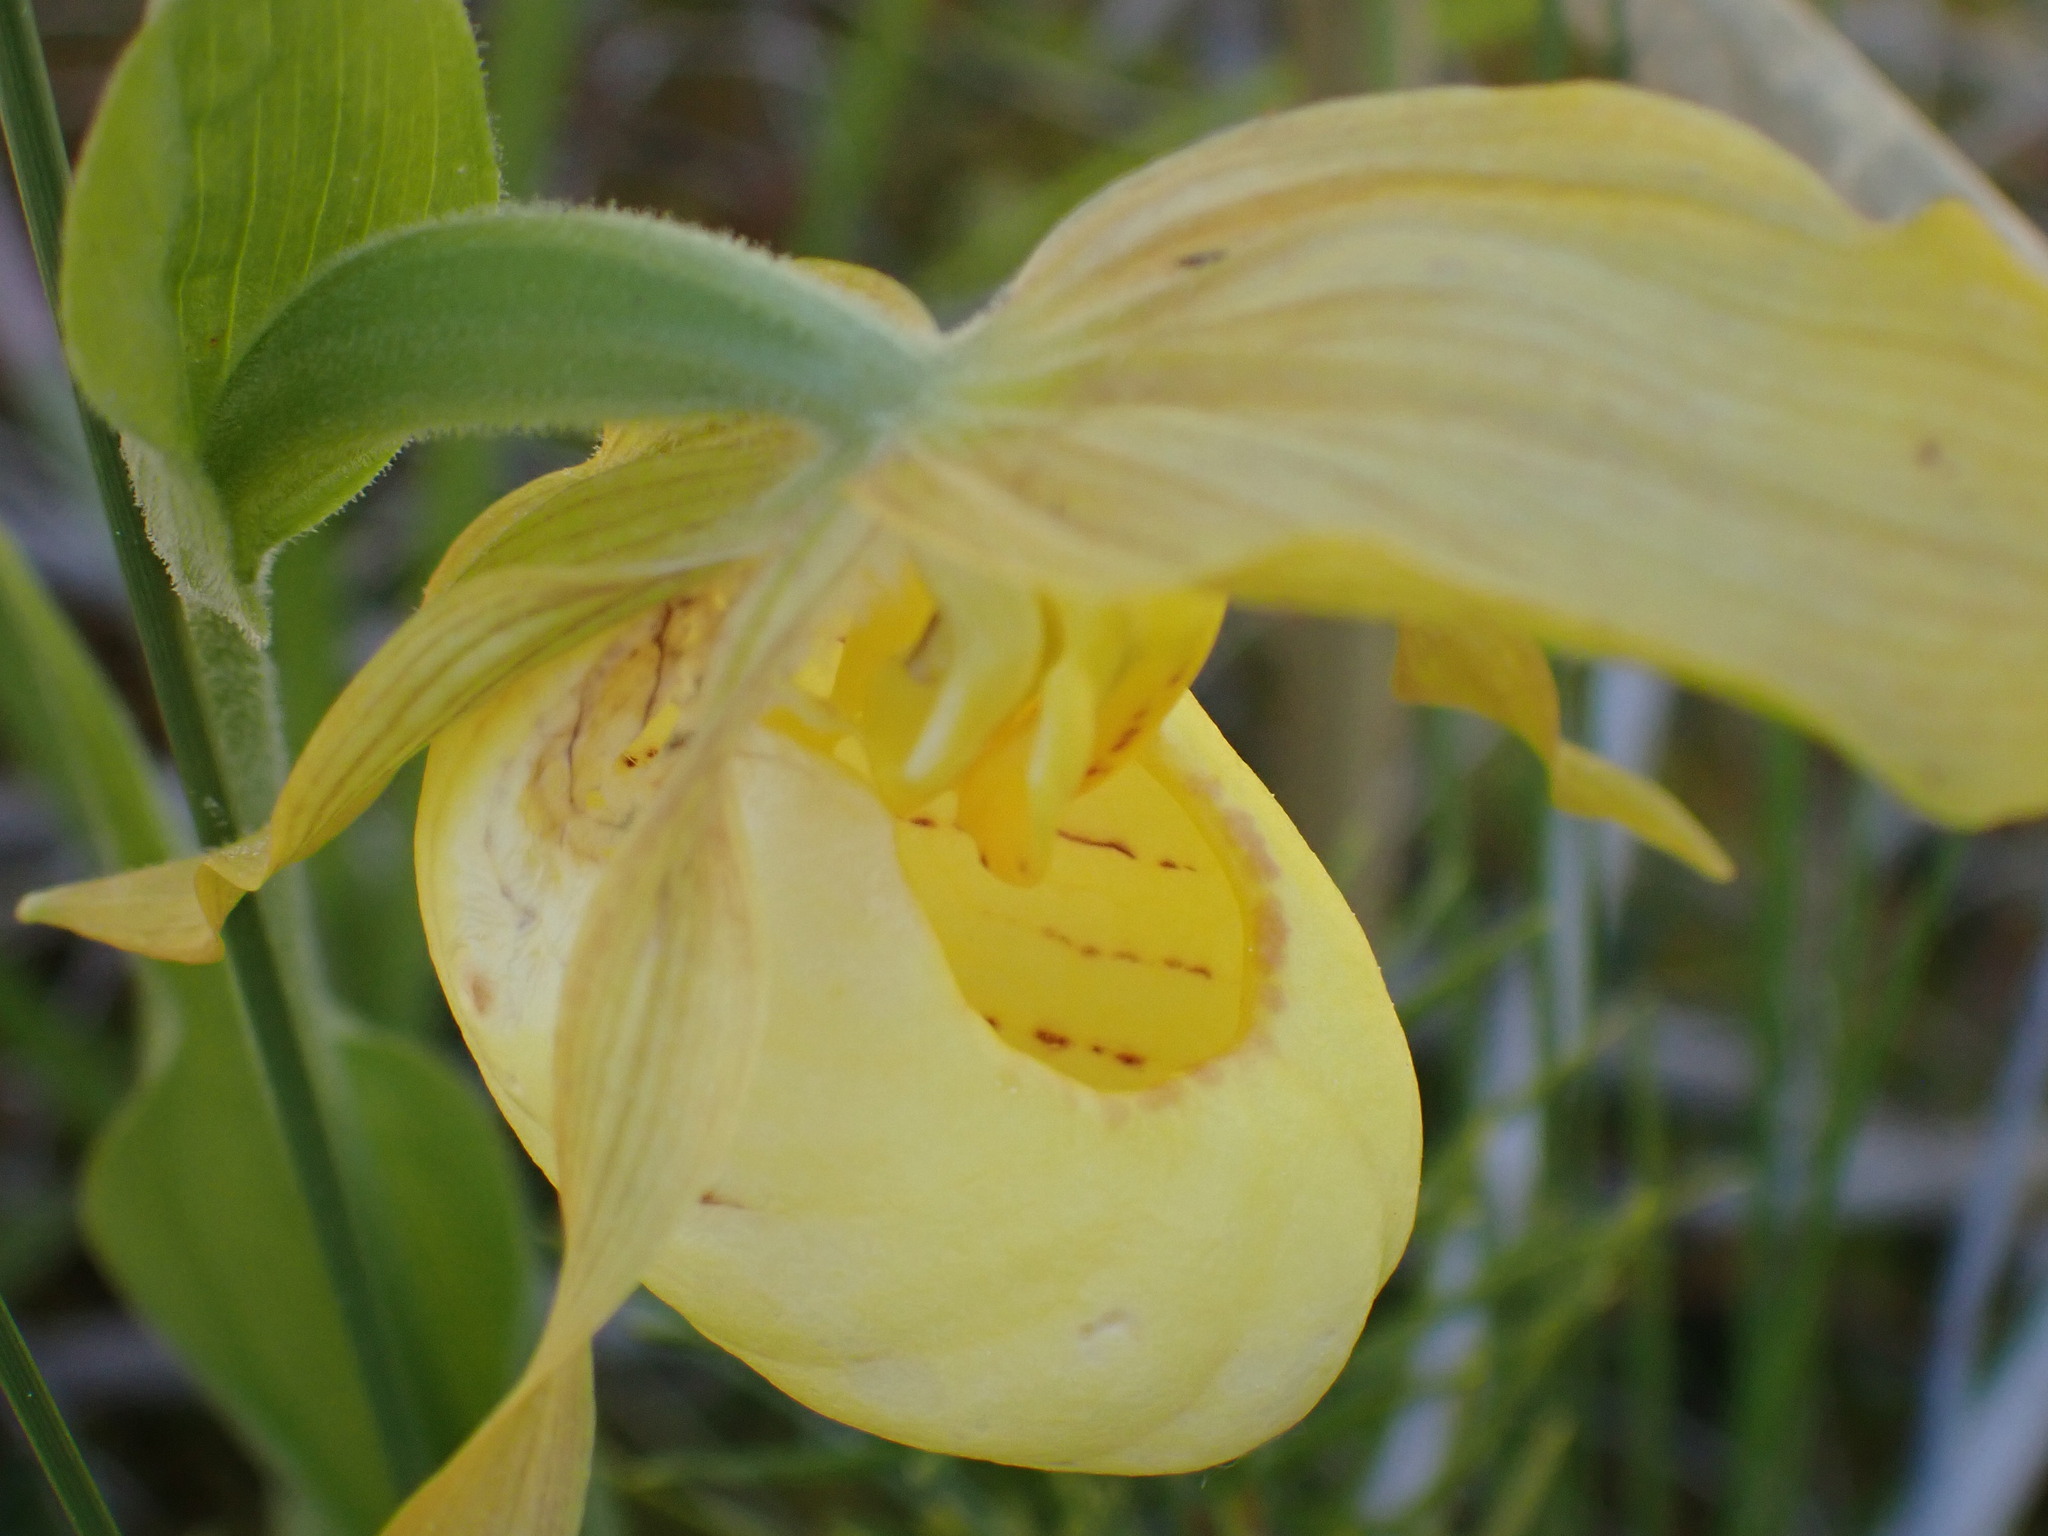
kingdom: Plantae
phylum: Tracheophyta
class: Liliopsida
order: Asparagales
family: Orchidaceae
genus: Cypripedium
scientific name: Cypripedium parviflorum
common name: American yellow lady's-slipper
